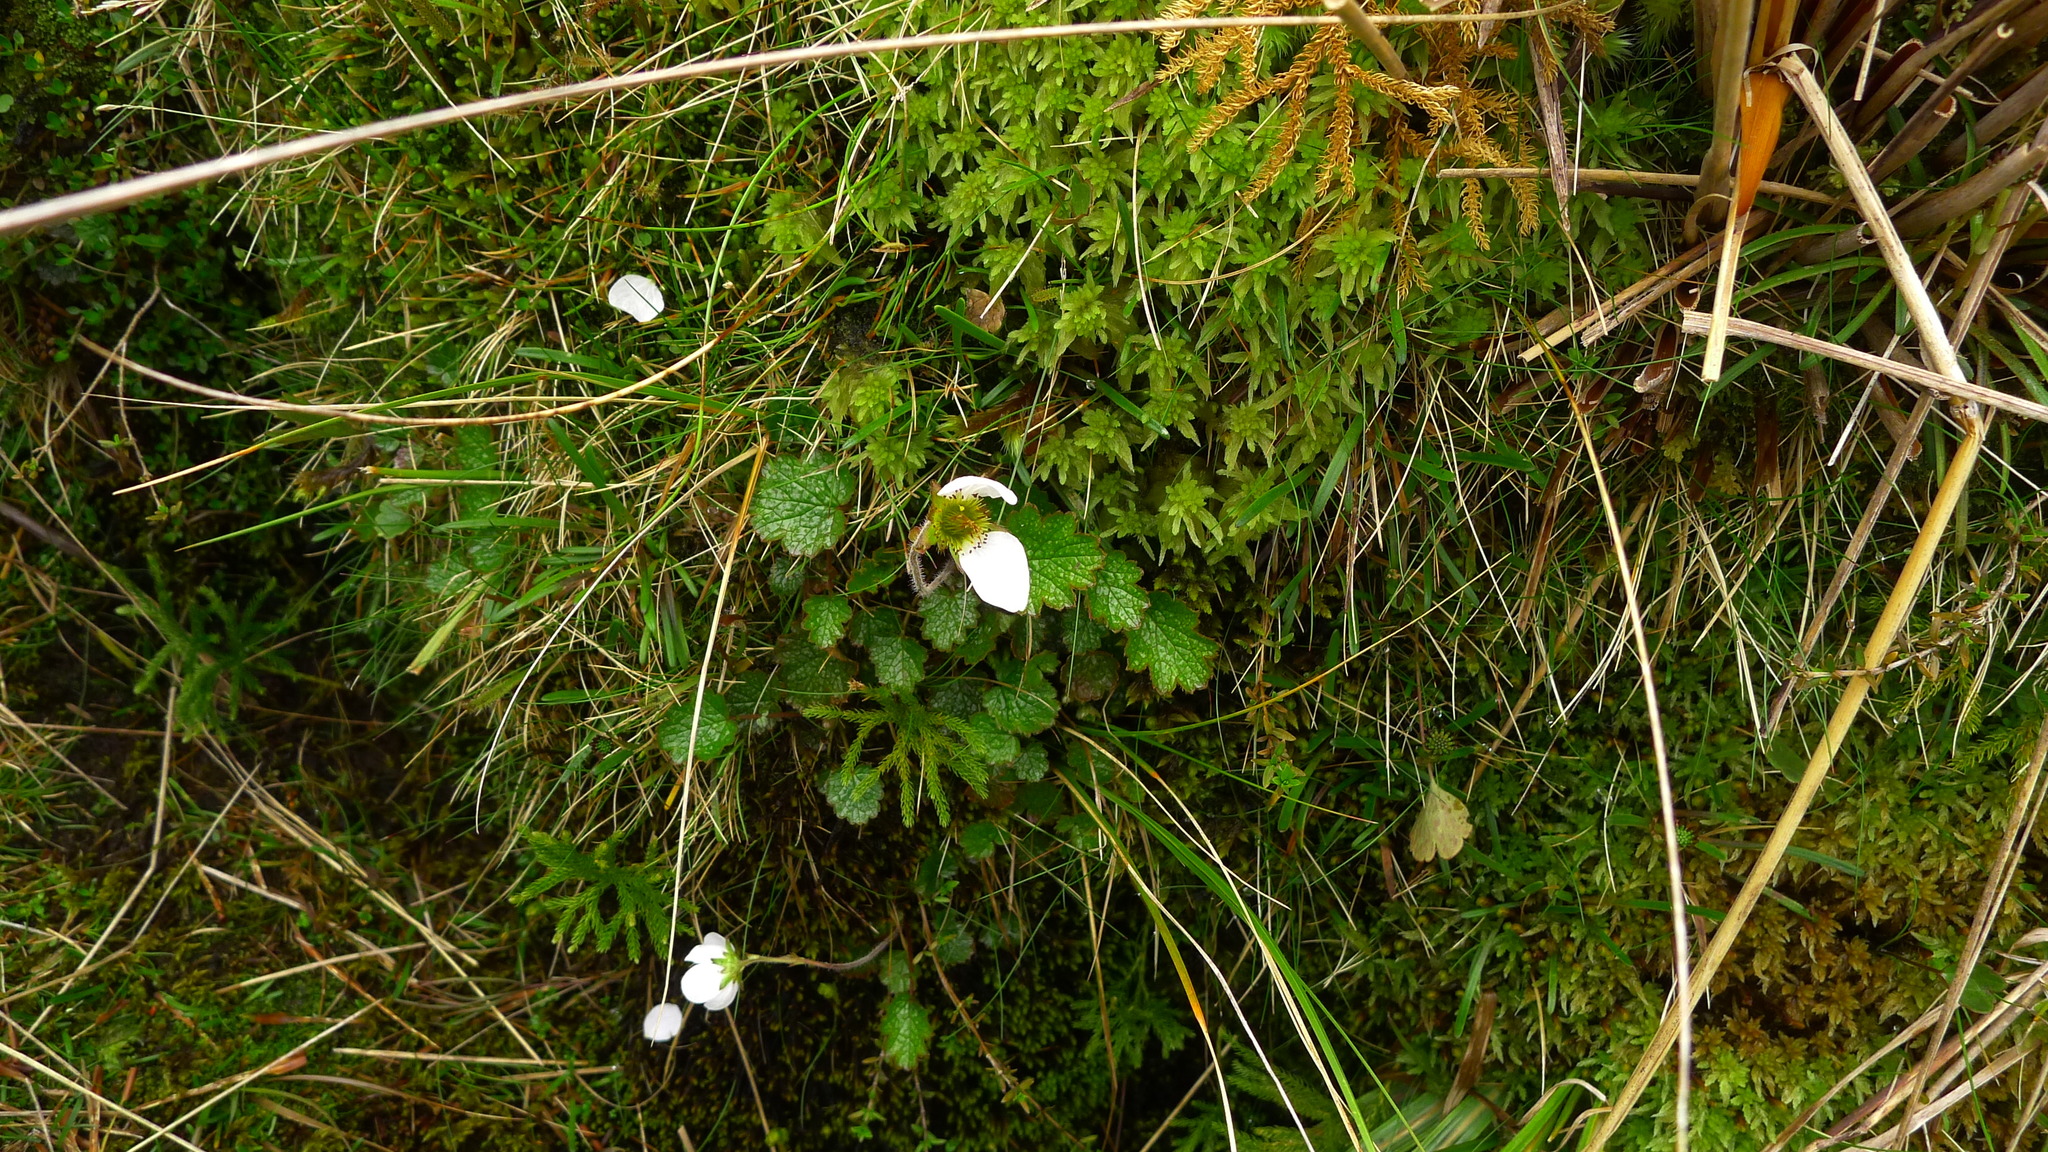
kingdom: Plantae
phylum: Tracheophyta
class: Magnoliopsida
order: Rosales
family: Rosaceae
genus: Geum
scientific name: Geum uniflorum
